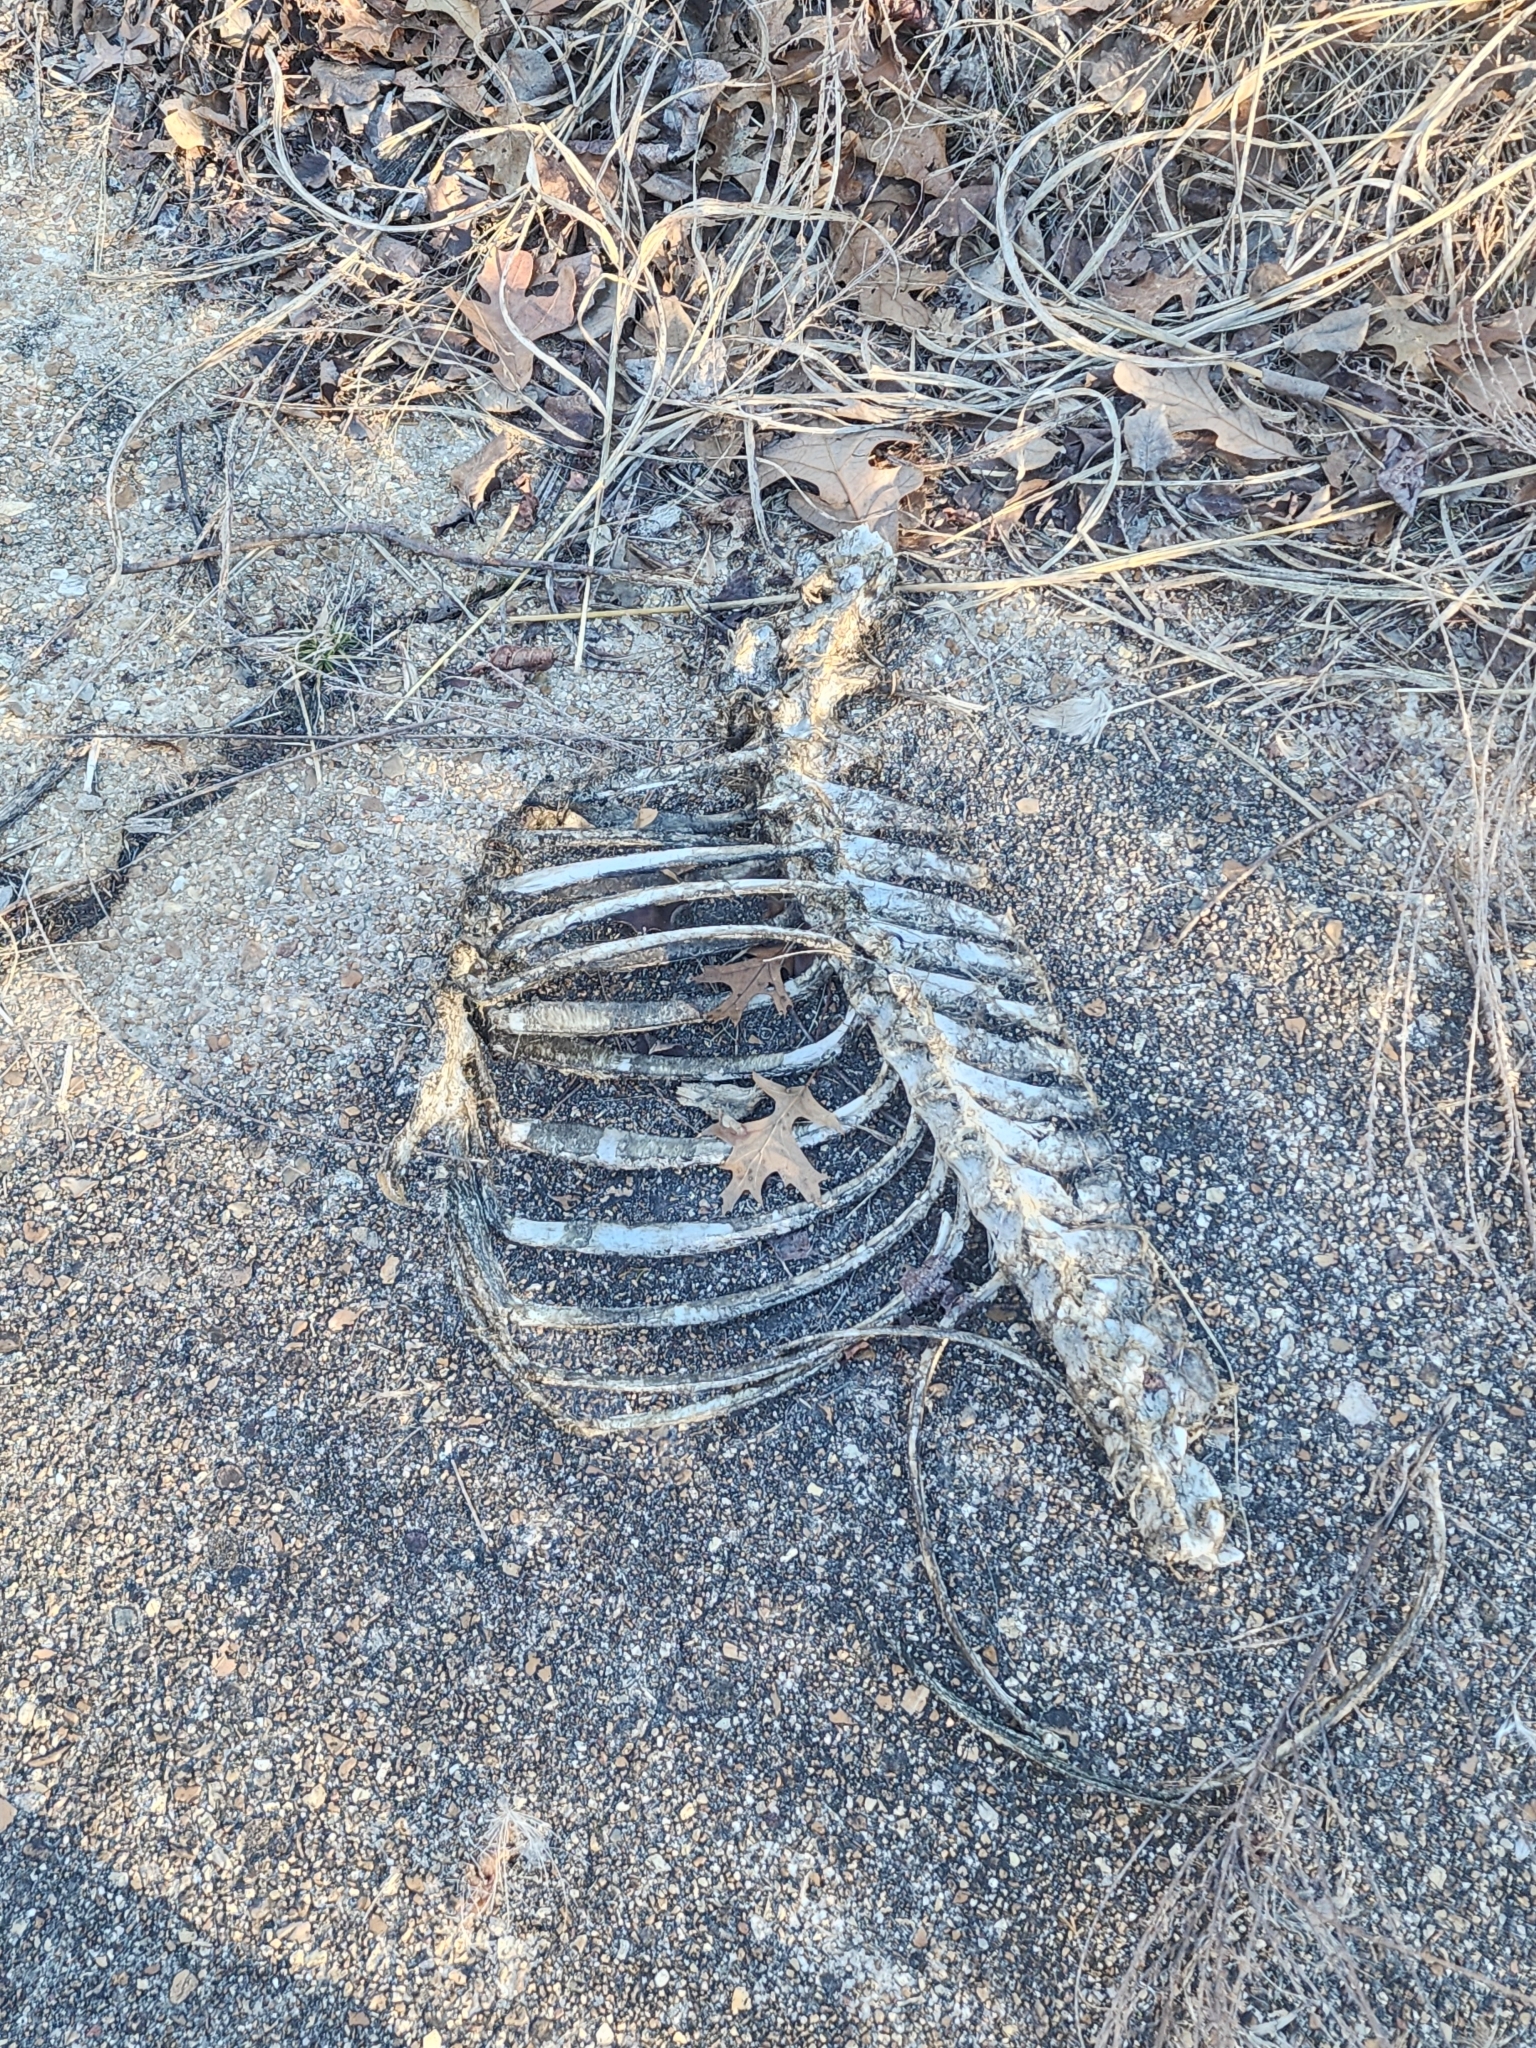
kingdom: Animalia
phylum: Chordata
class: Mammalia
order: Artiodactyla
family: Cervidae
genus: Odocoileus
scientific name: Odocoileus virginianus
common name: White-tailed deer
